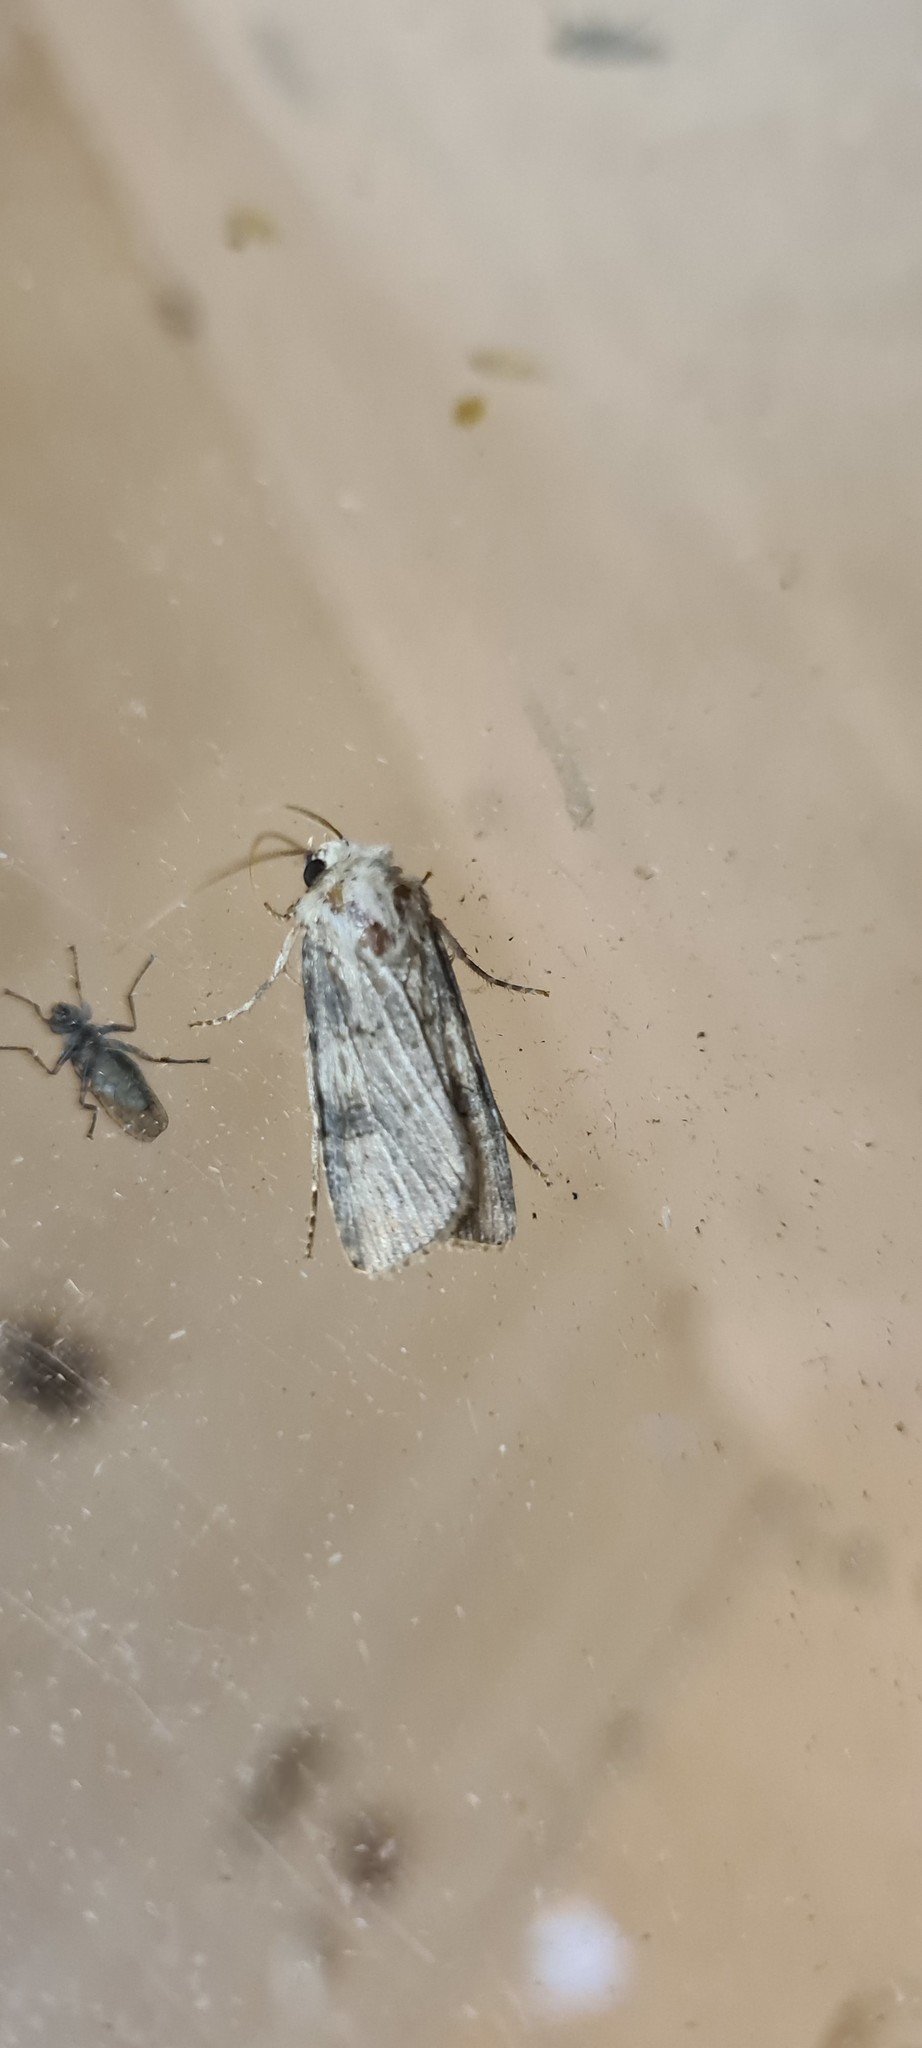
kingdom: Animalia
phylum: Arthropoda
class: Insecta
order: Lepidoptera
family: Noctuidae
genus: Agrotis
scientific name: Agrotis puta
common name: Shuttle-shaped dart
